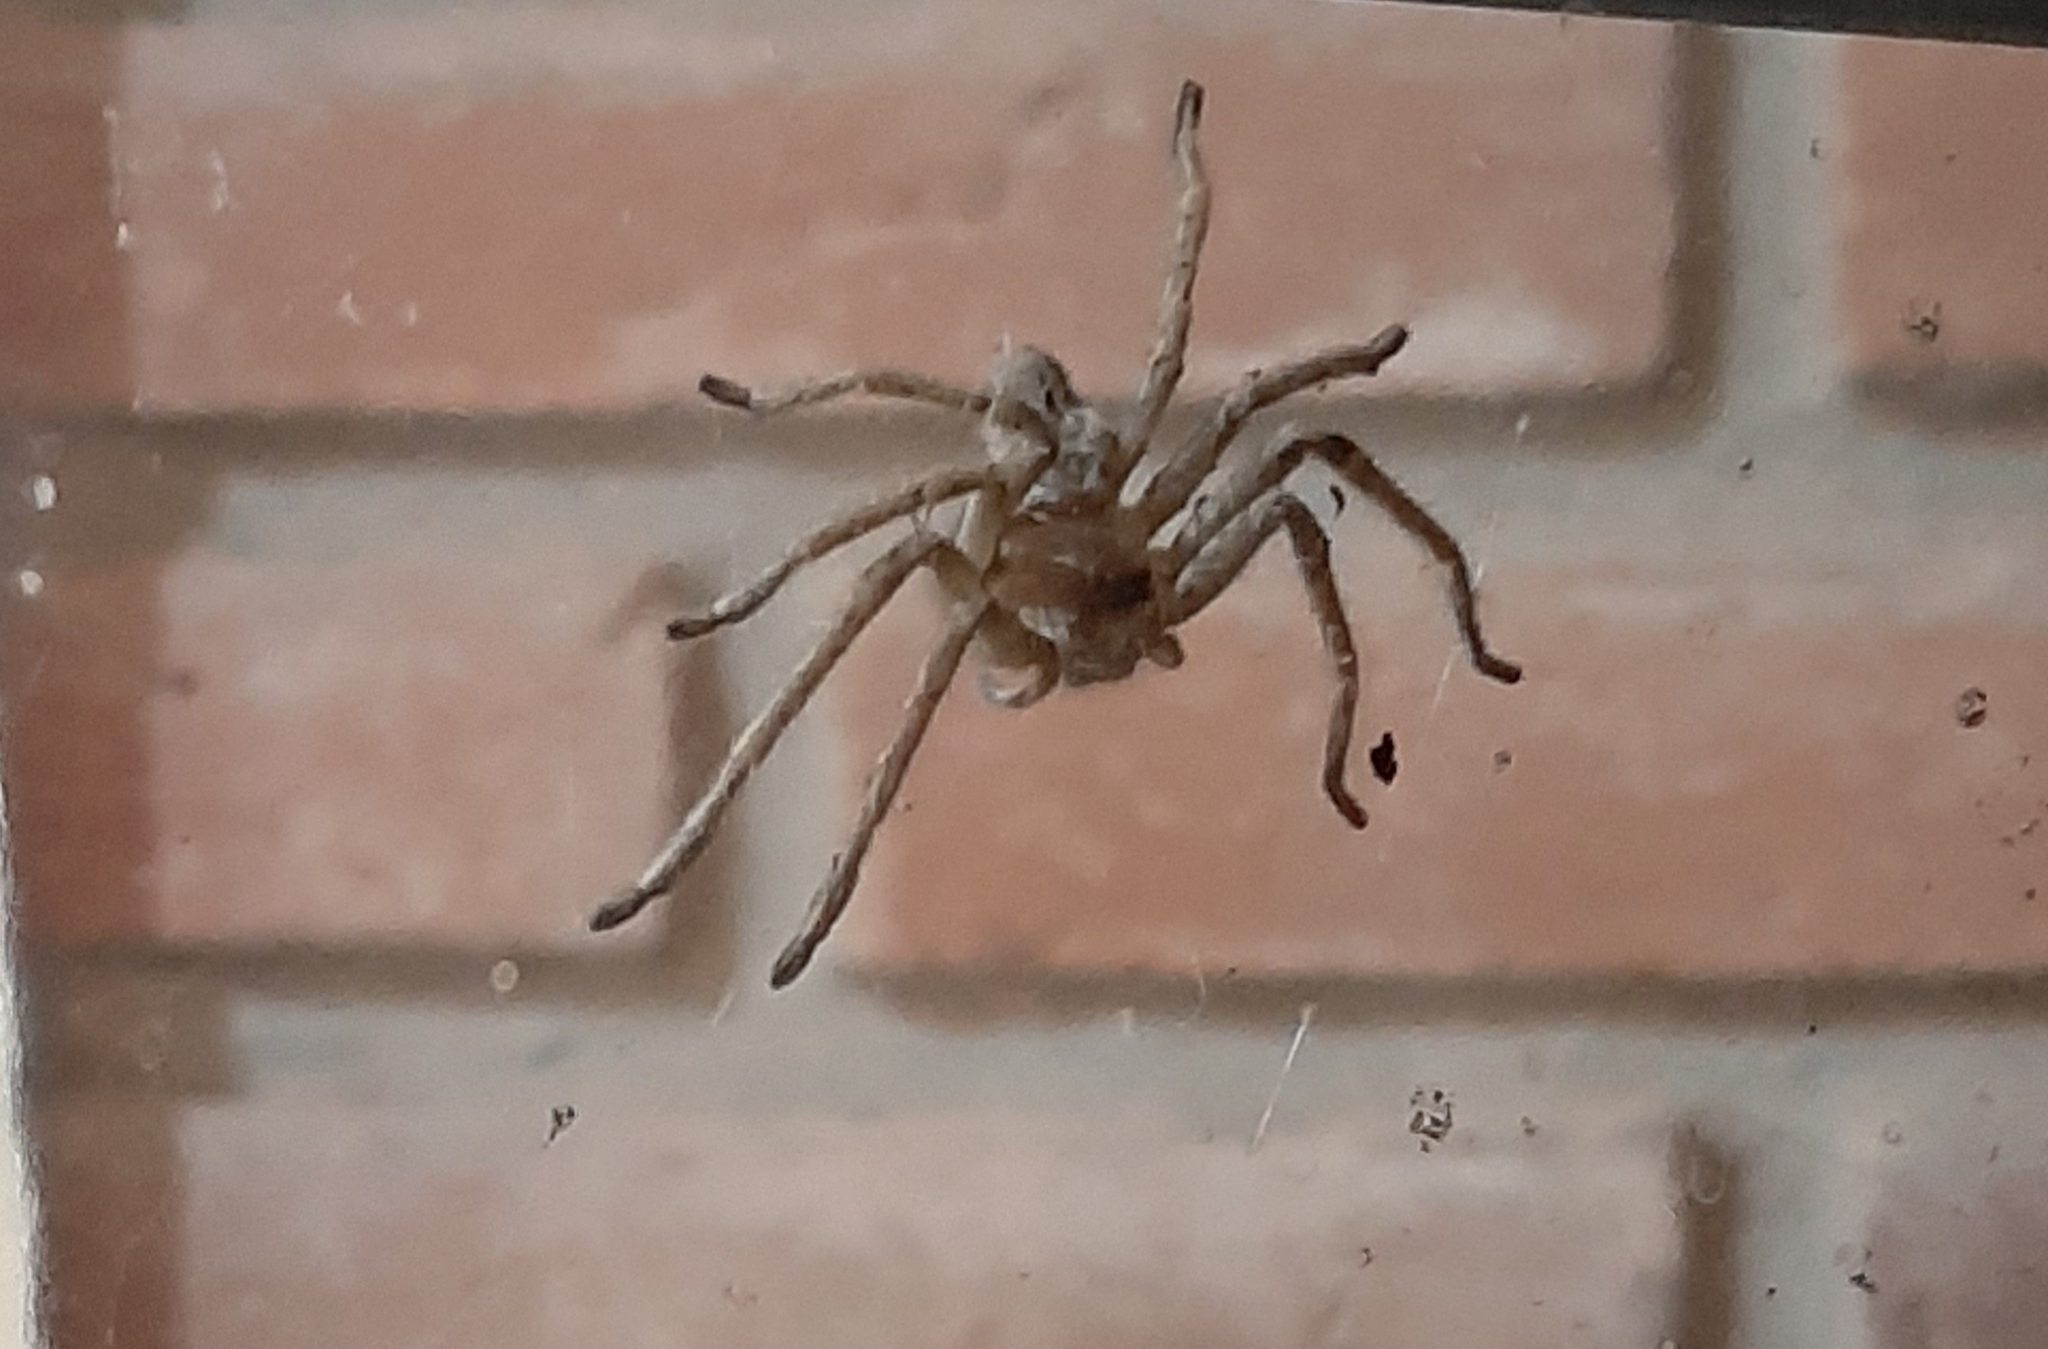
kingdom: Animalia
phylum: Arthropoda
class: Arachnida
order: Araneae
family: Sparassidae
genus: Polybetes
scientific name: Polybetes trifoveatus
